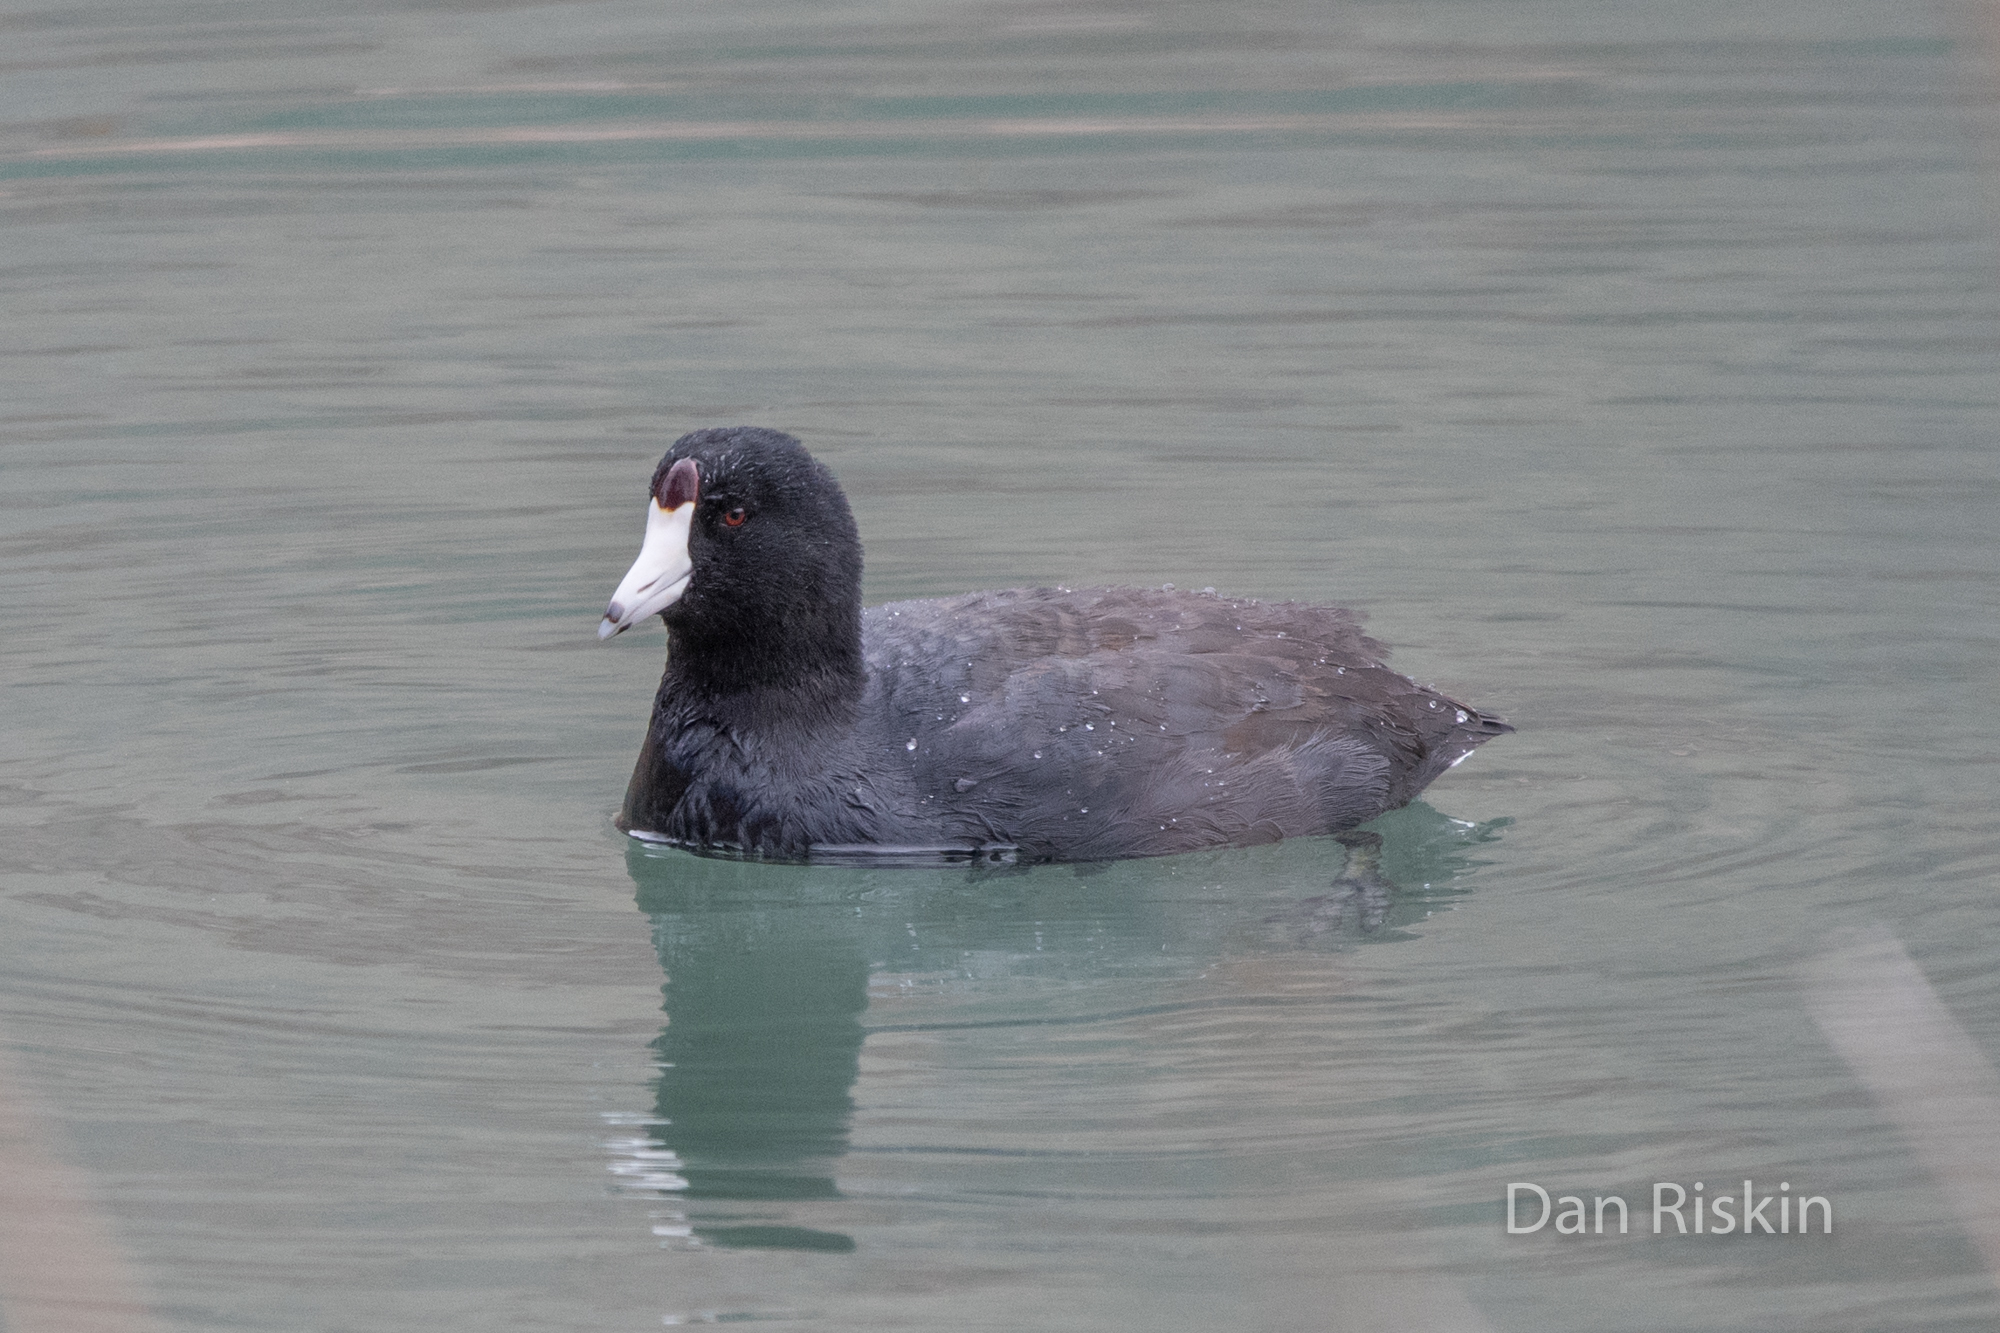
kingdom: Animalia
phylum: Chordata
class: Aves
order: Gruiformes
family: Rallidae
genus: Fulica
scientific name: Fulica americana
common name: American coot
